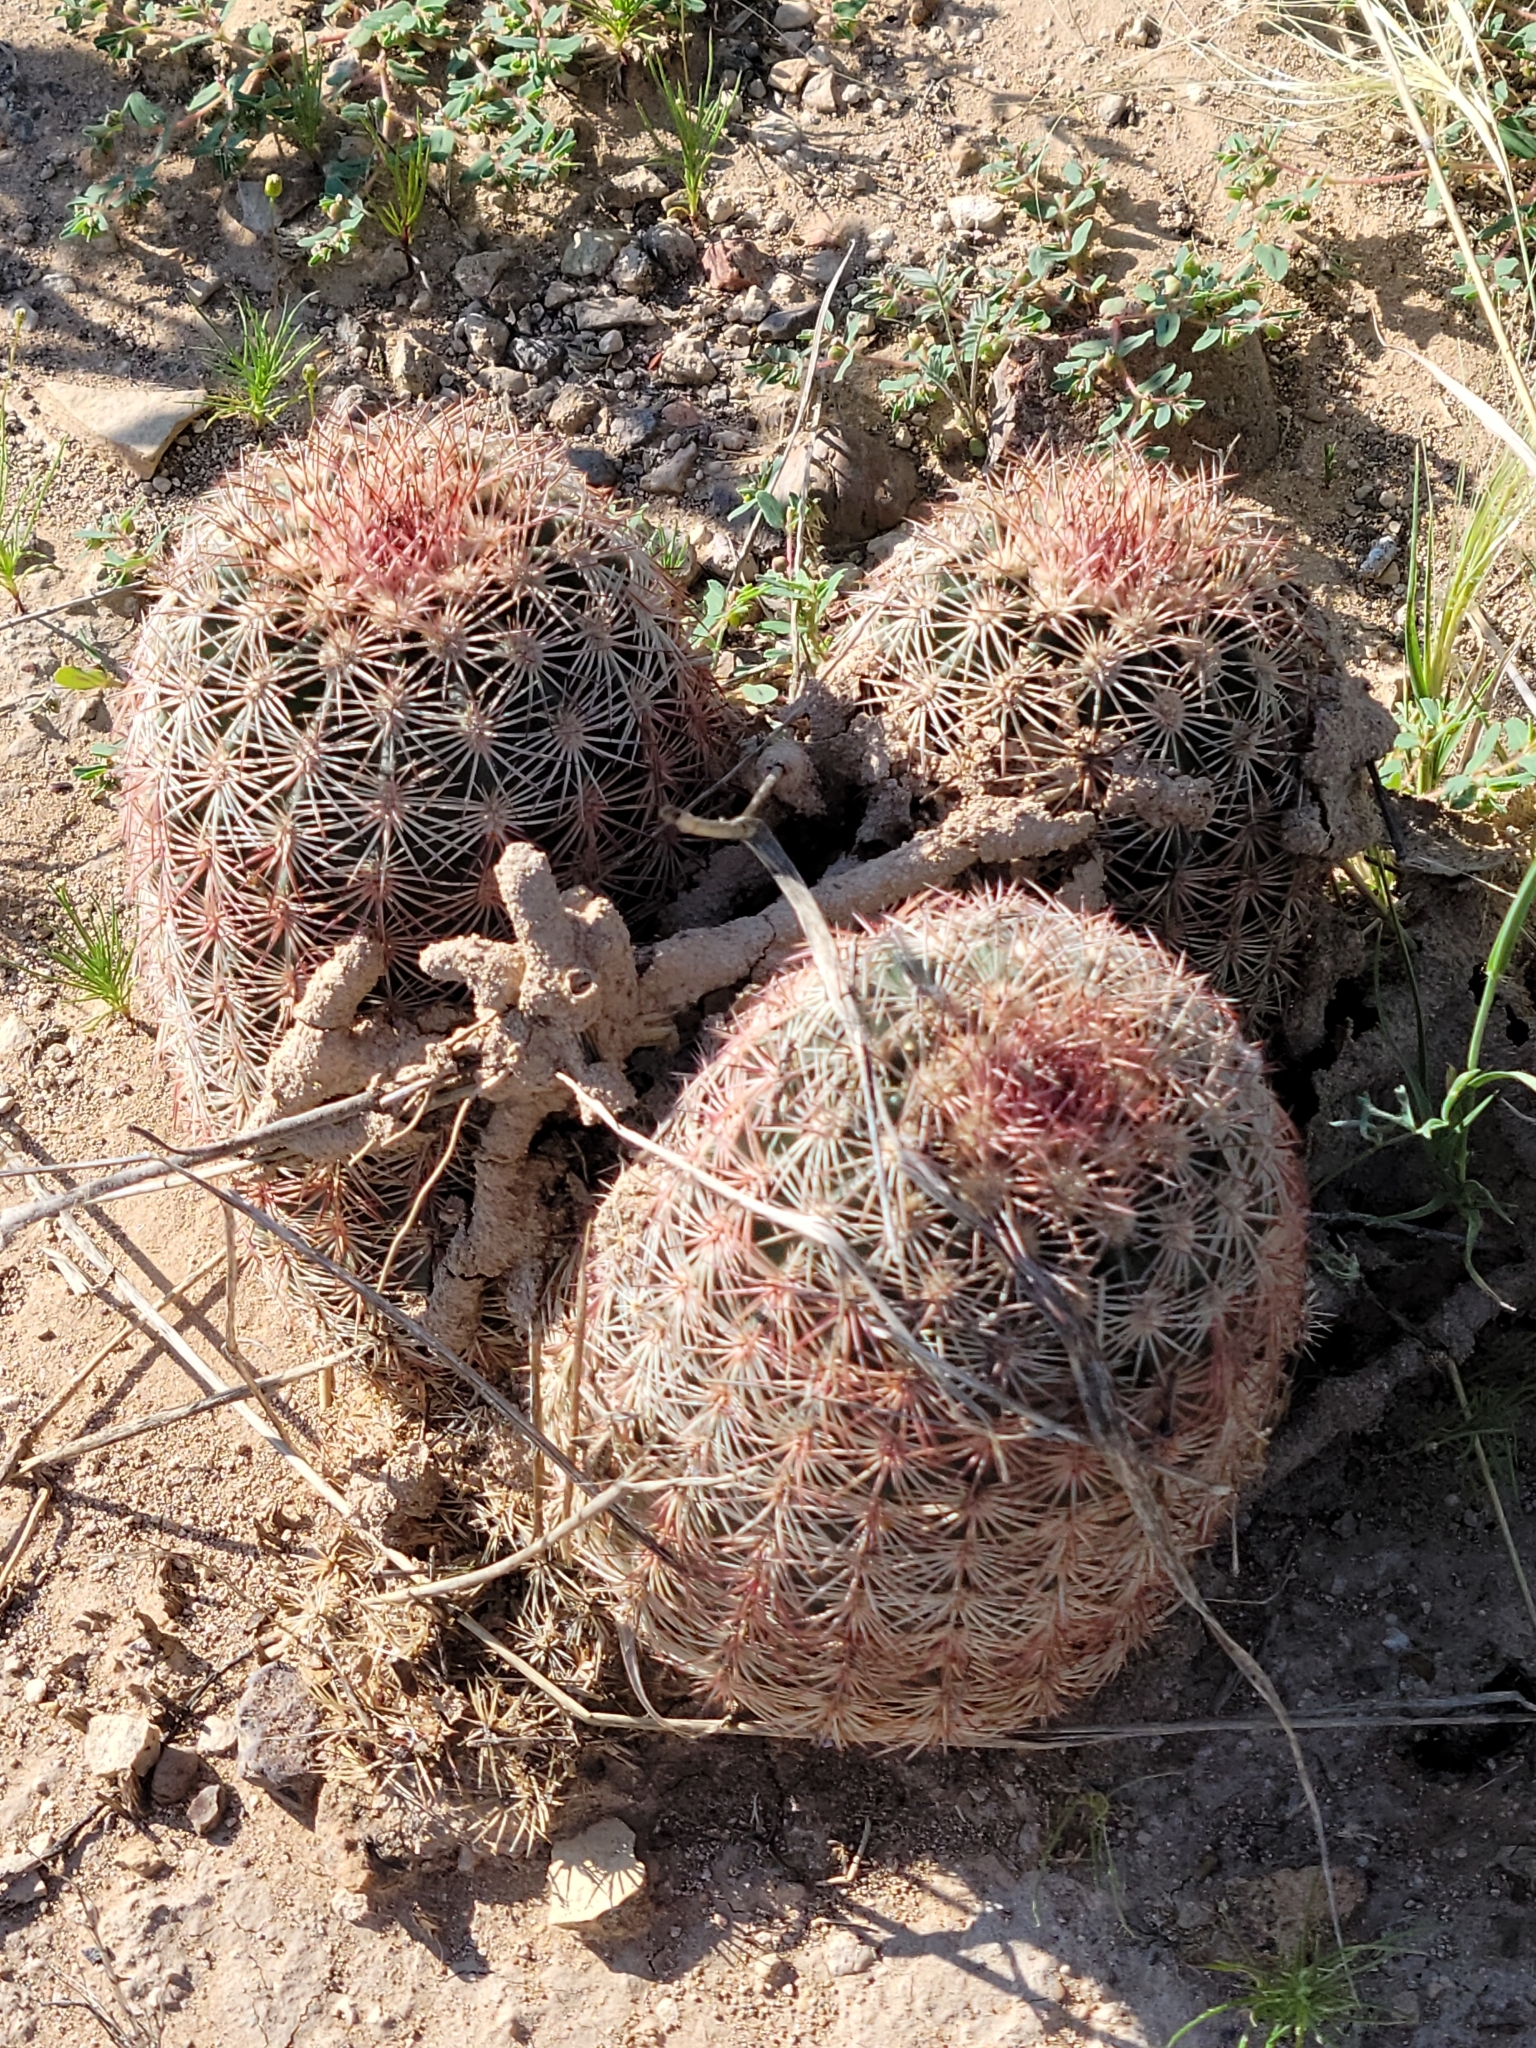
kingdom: Plantae
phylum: Tracheophyta
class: Magnoliopsida
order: Caryophyllales
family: Cactaceae
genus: Echinocereus
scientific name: Echinocereus dasyacanthus
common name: Spiny hedgehog cactus
